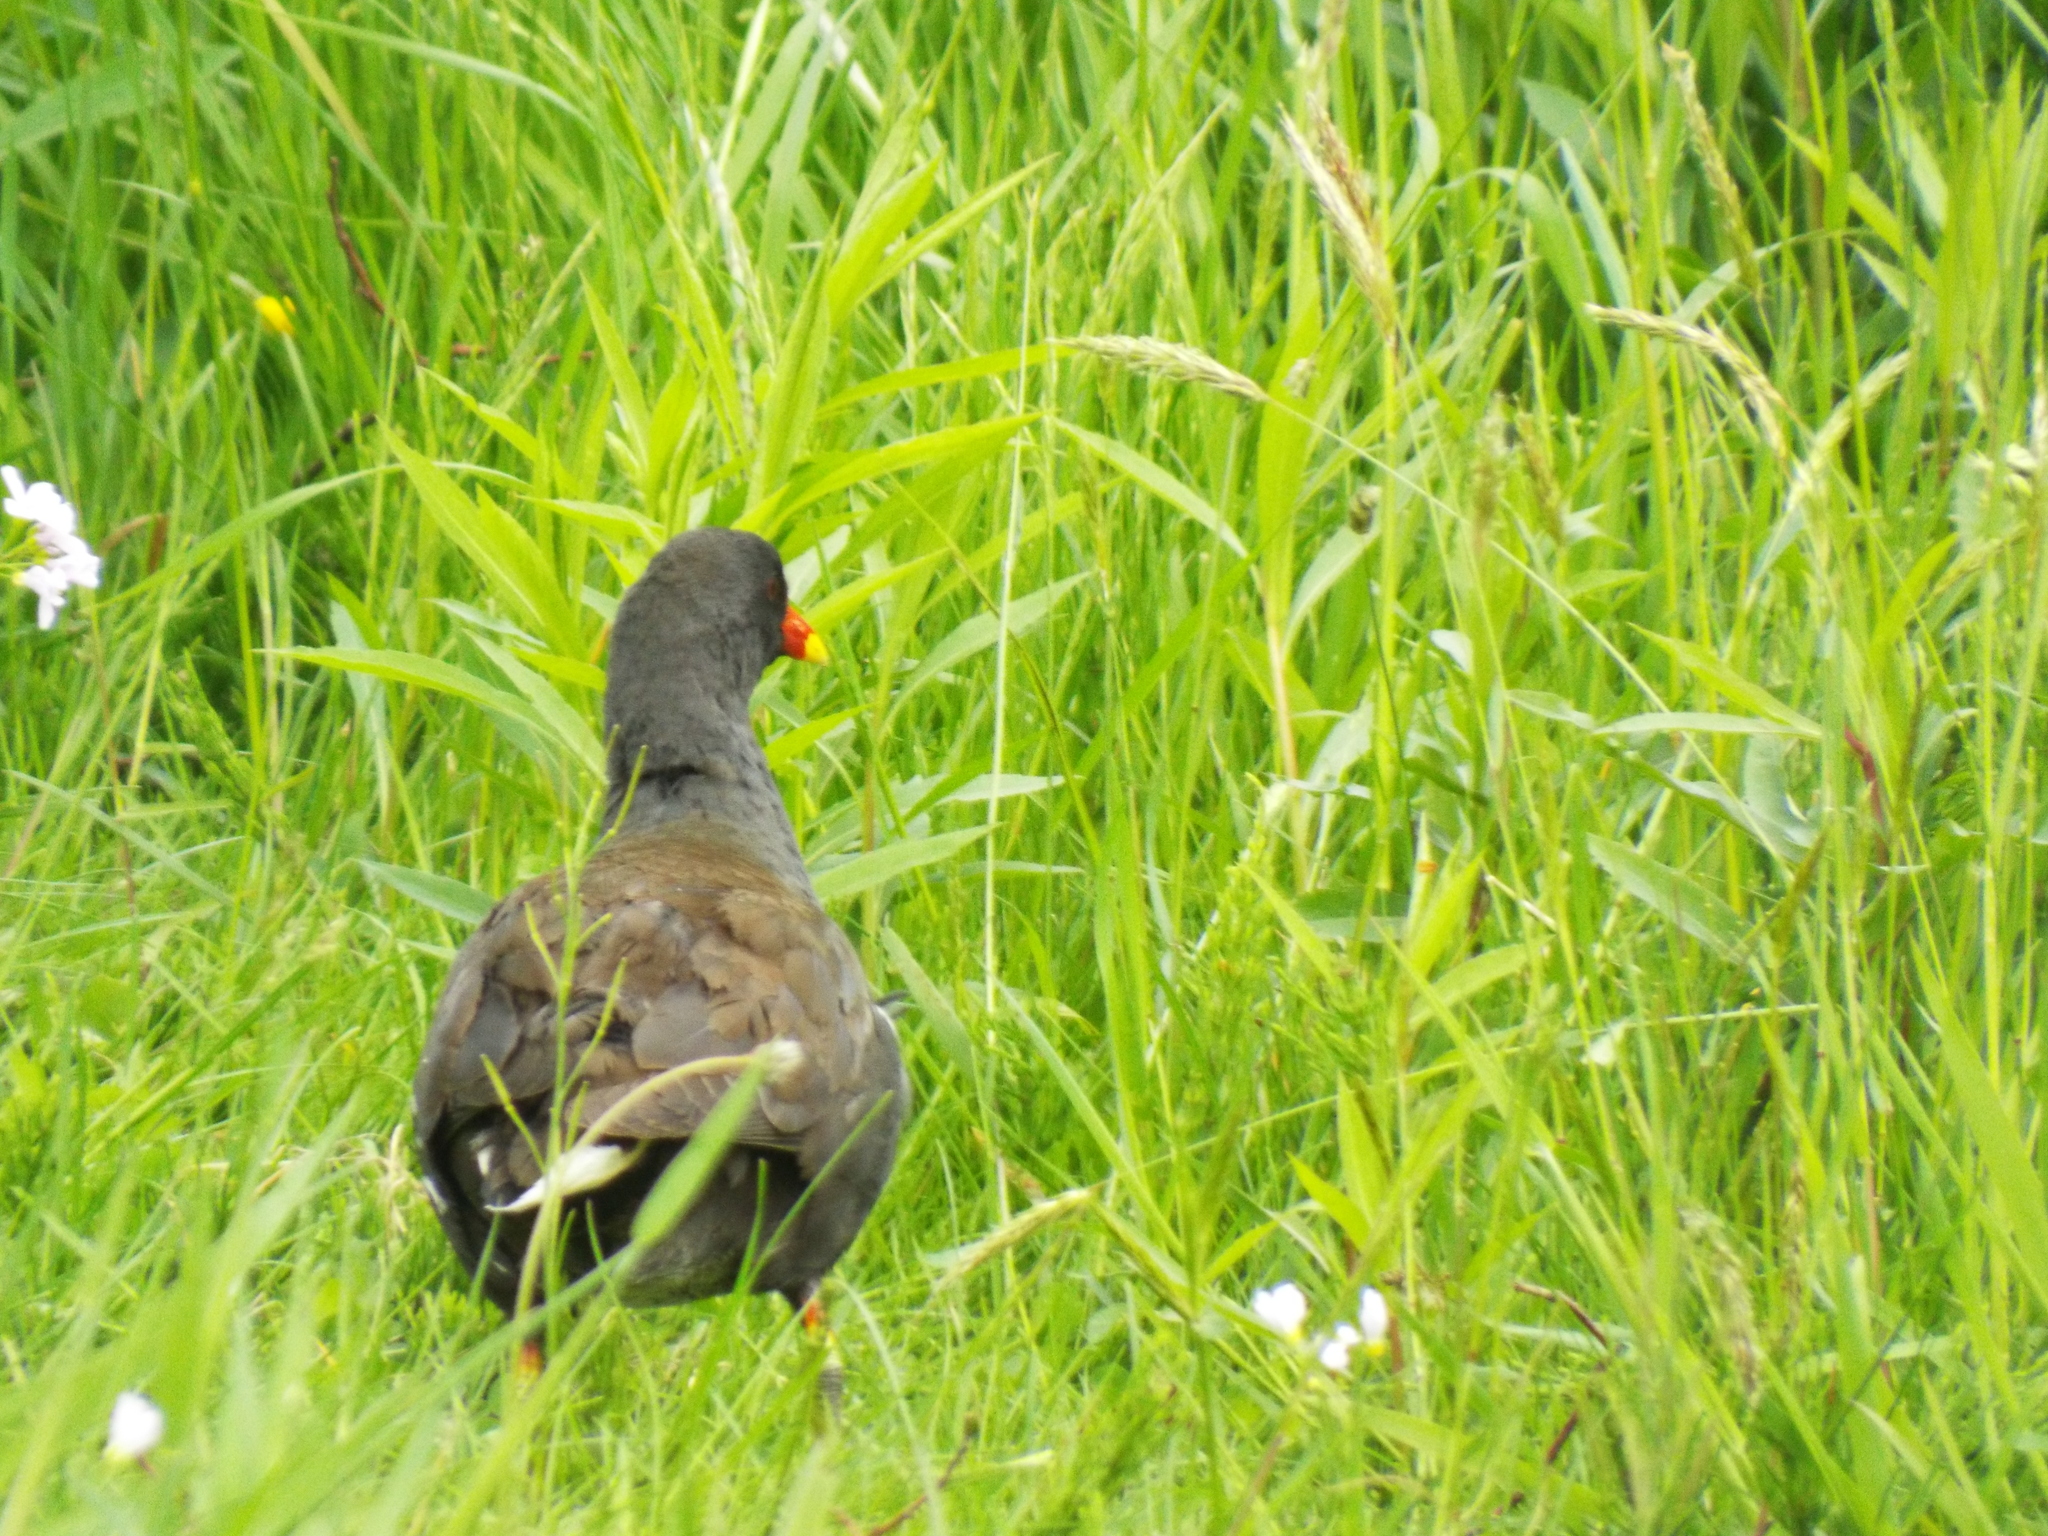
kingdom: Animalia
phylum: Chordata
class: Aves
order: Gruiformes
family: Rallidae
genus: Gallinula
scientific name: Gallinula chloropus
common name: Common moorhen
